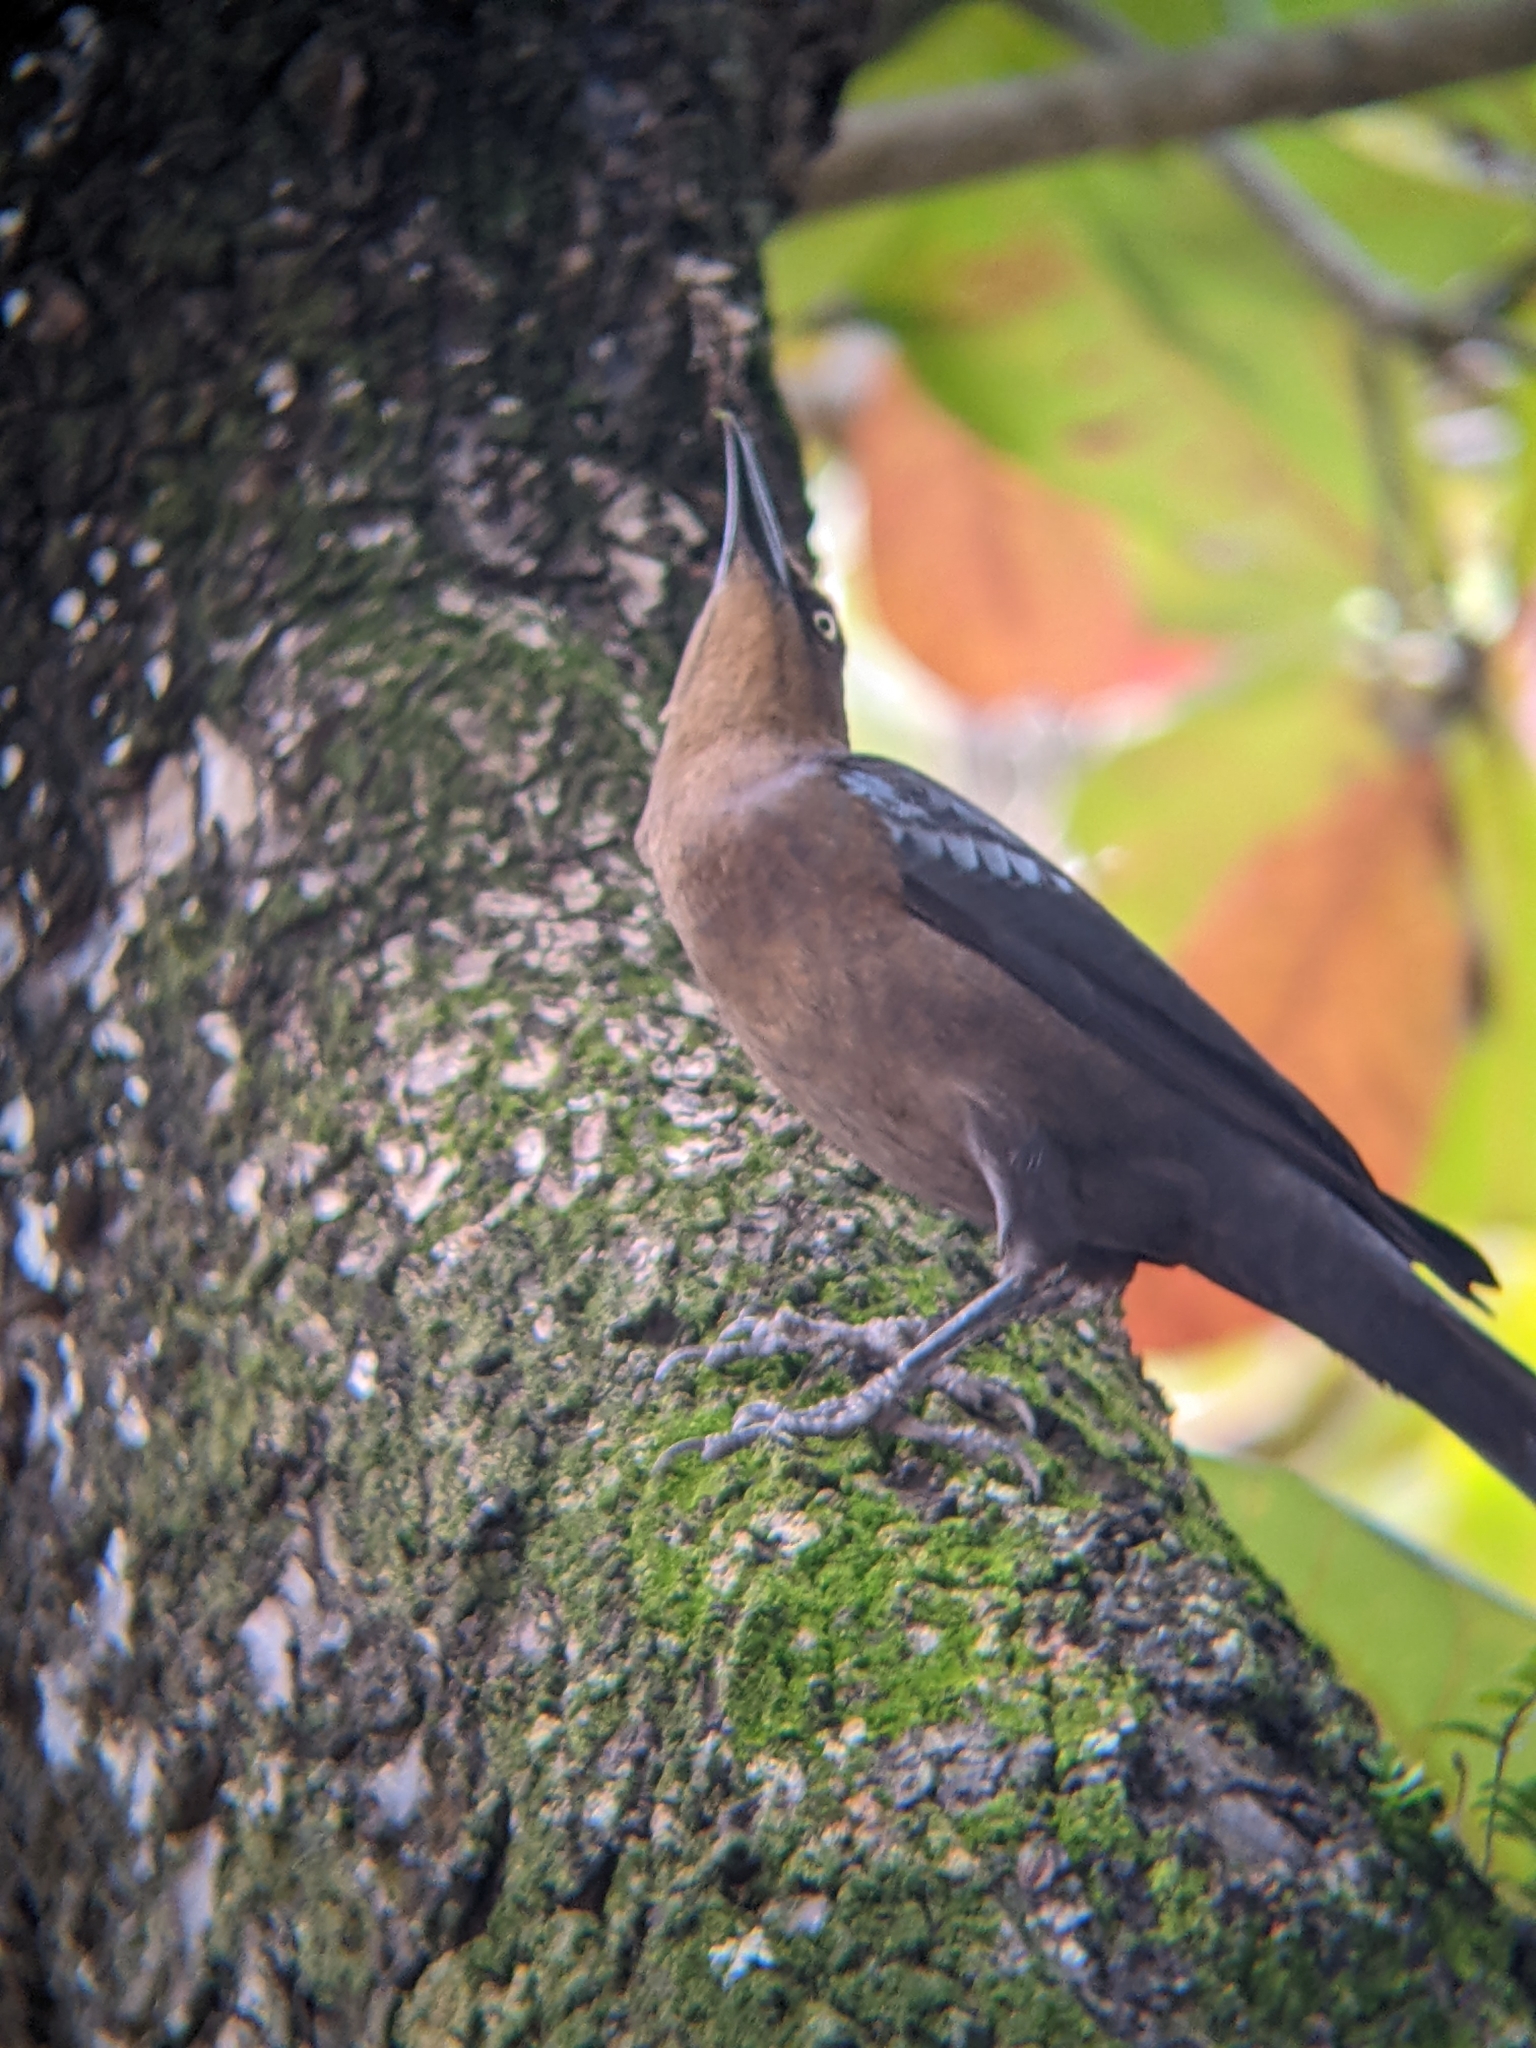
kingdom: Animalia
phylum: Chordata
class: Aves
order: Passeriformes
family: Icteridae
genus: Quiscalus
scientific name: Quiscalus mexicanus
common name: Great-tailed grackle
